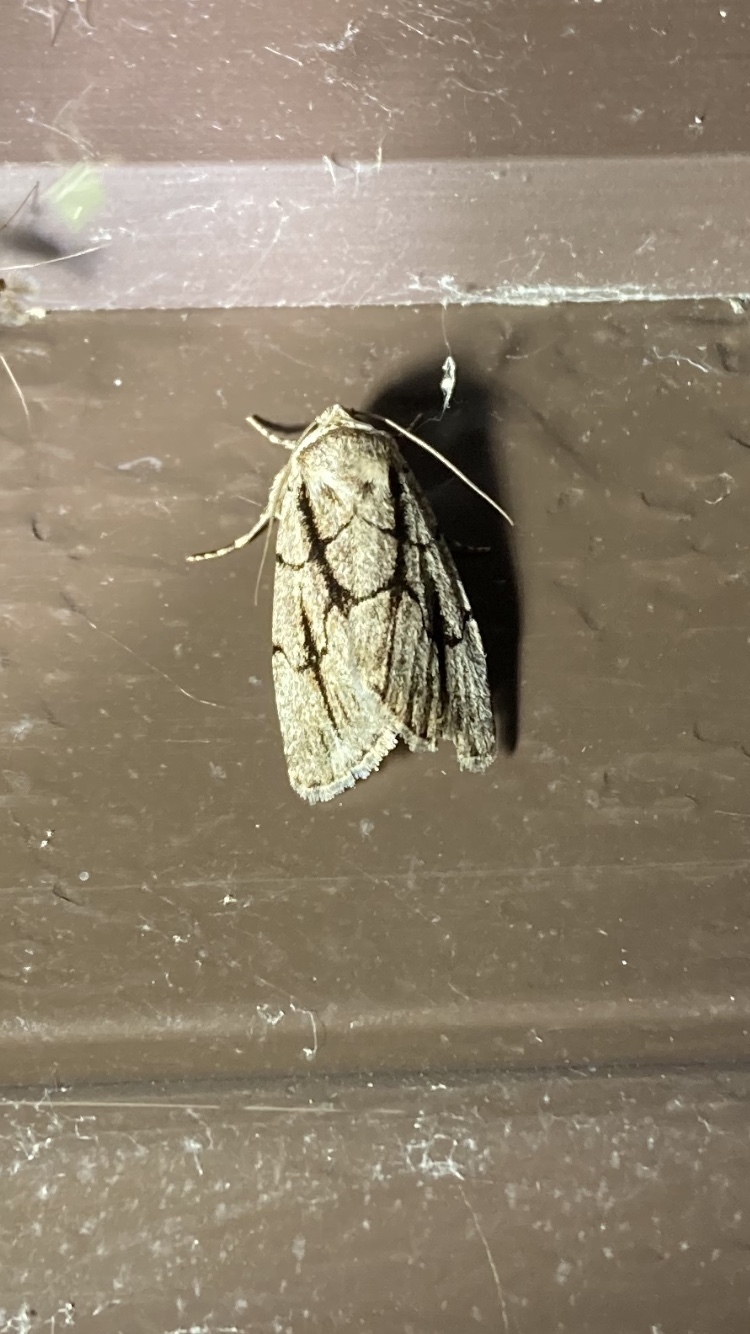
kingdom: Animalia
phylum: Arthropoda
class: Insecta
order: Lepidoptera
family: Noctuidae
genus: Sympistis
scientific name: Sympistis dinalda
